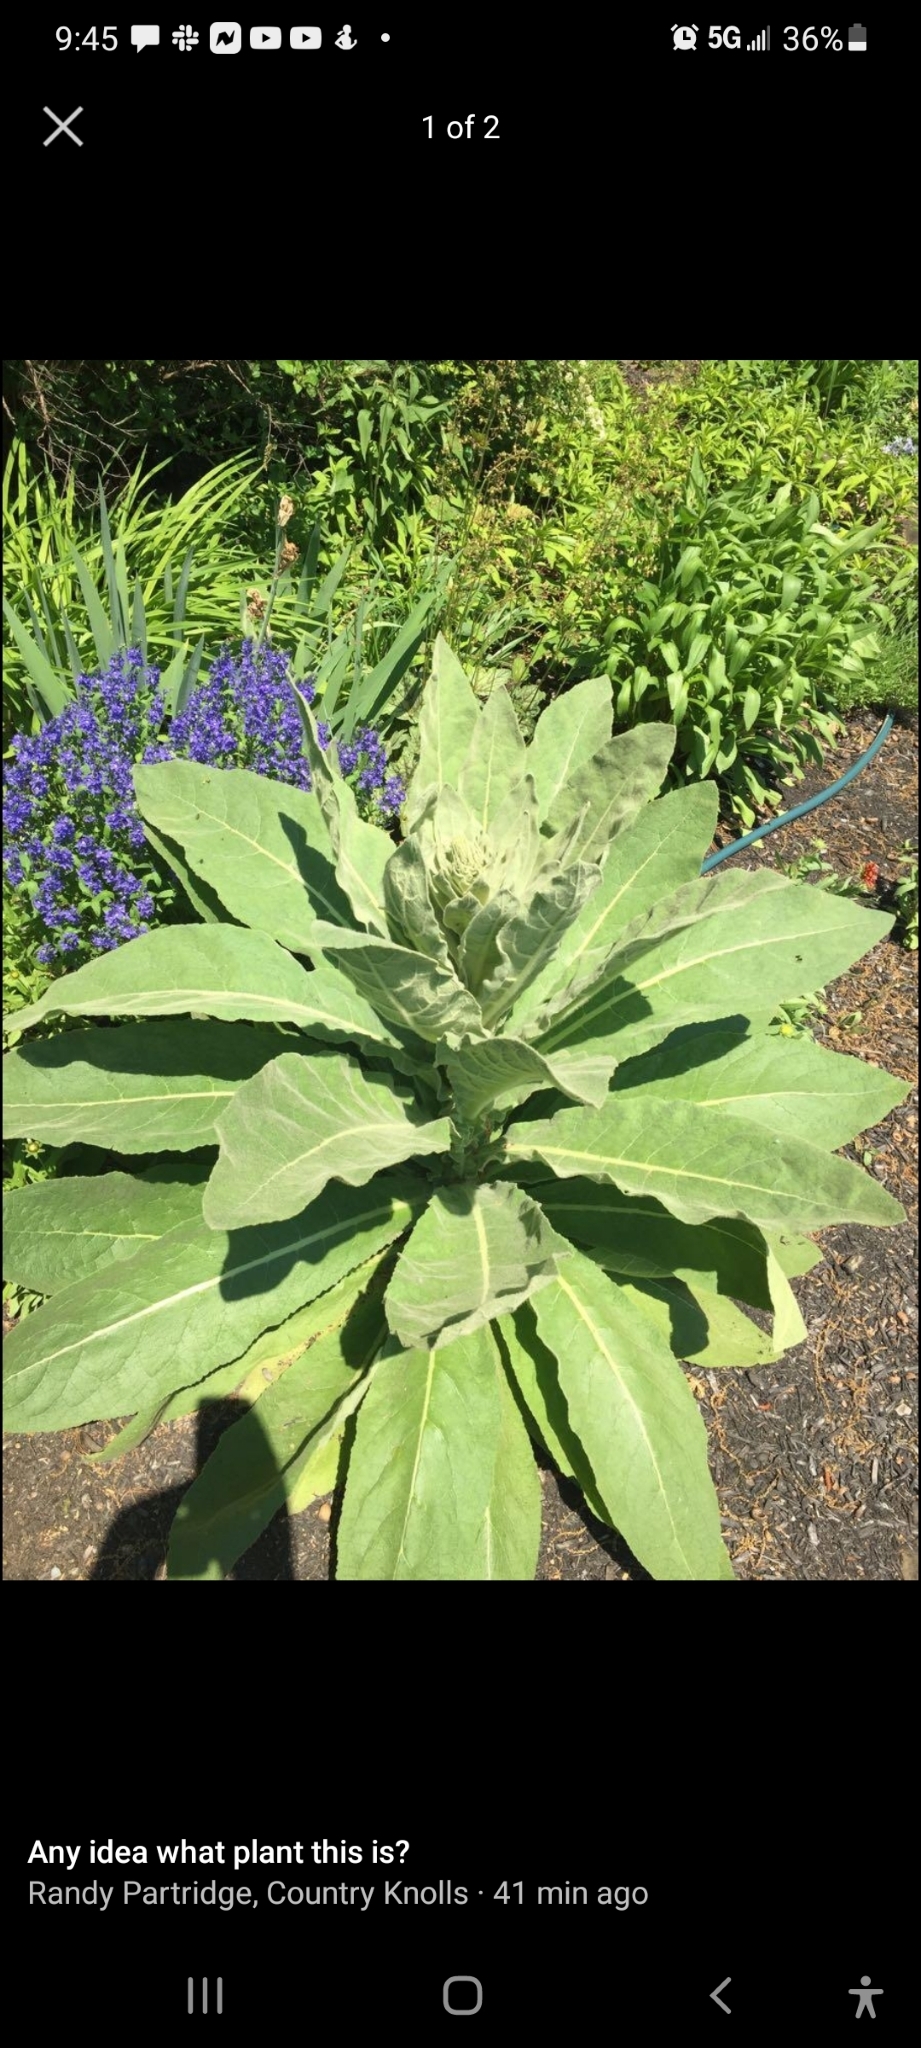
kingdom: Plantae
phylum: Tracheophyta
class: Magnoliopsida
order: Lamiales
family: Scrophulariaceae
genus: Verbascum
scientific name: Verbascum thapsus
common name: Common mullein
